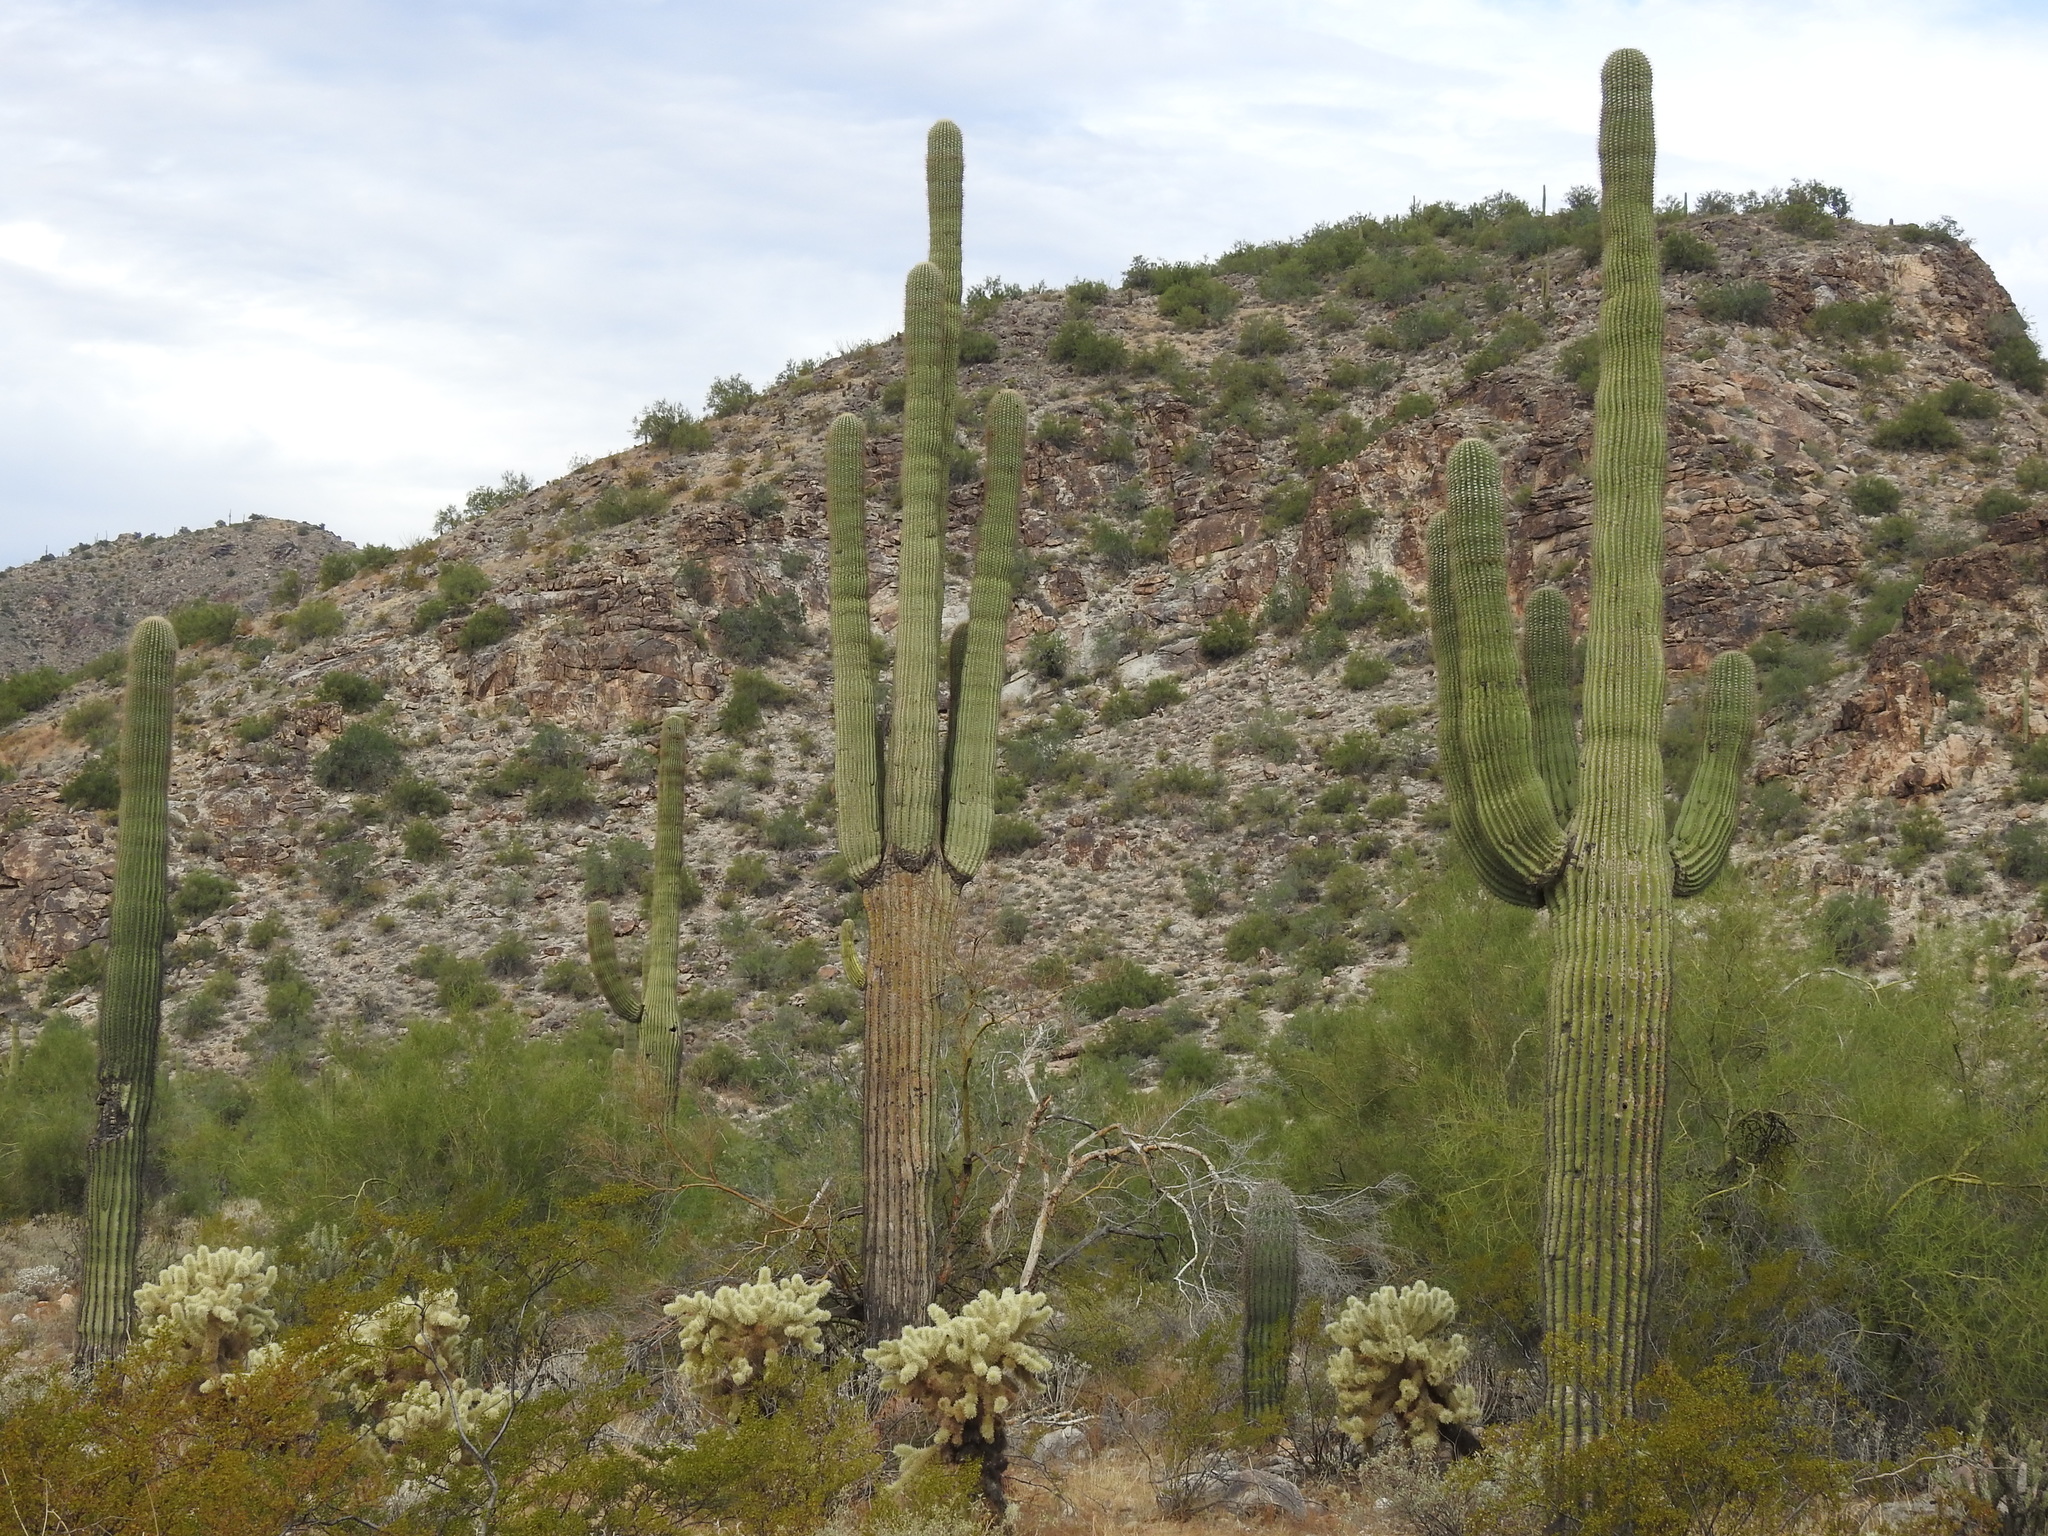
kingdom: Plantae
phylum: Tracheophyta
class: Magnoliopsida
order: Caryophyllales
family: Cactaceae
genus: Carnegiea
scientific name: Carnegiea gigantea
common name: Saguaro
